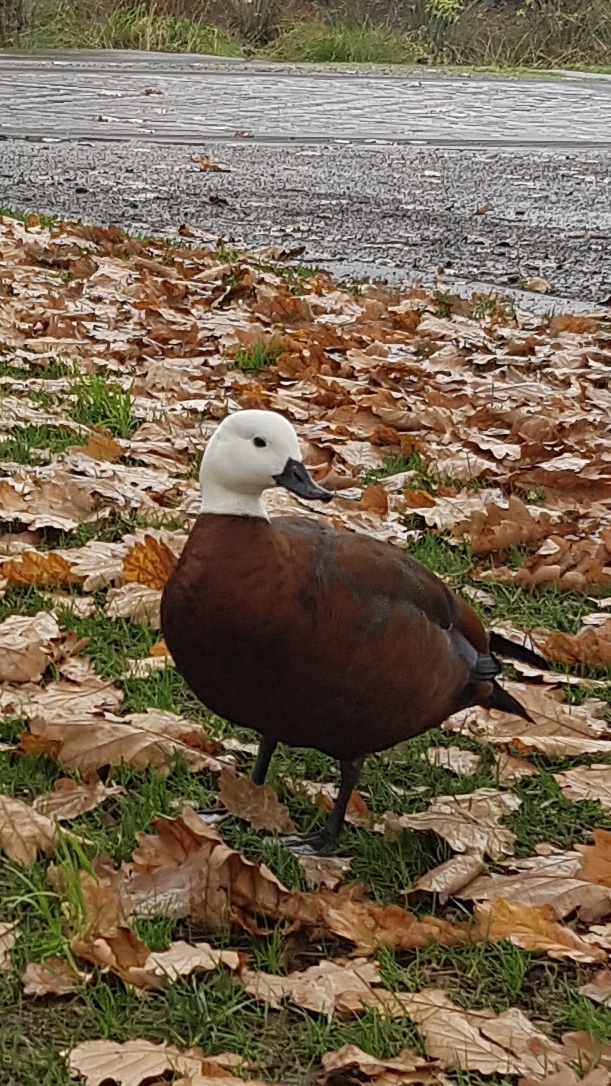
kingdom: Animalia
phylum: Chordata
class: Aves
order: Anseriformes
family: Anatidae
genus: Tadorna
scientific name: Tadorna variegata
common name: Paradise shelduck
